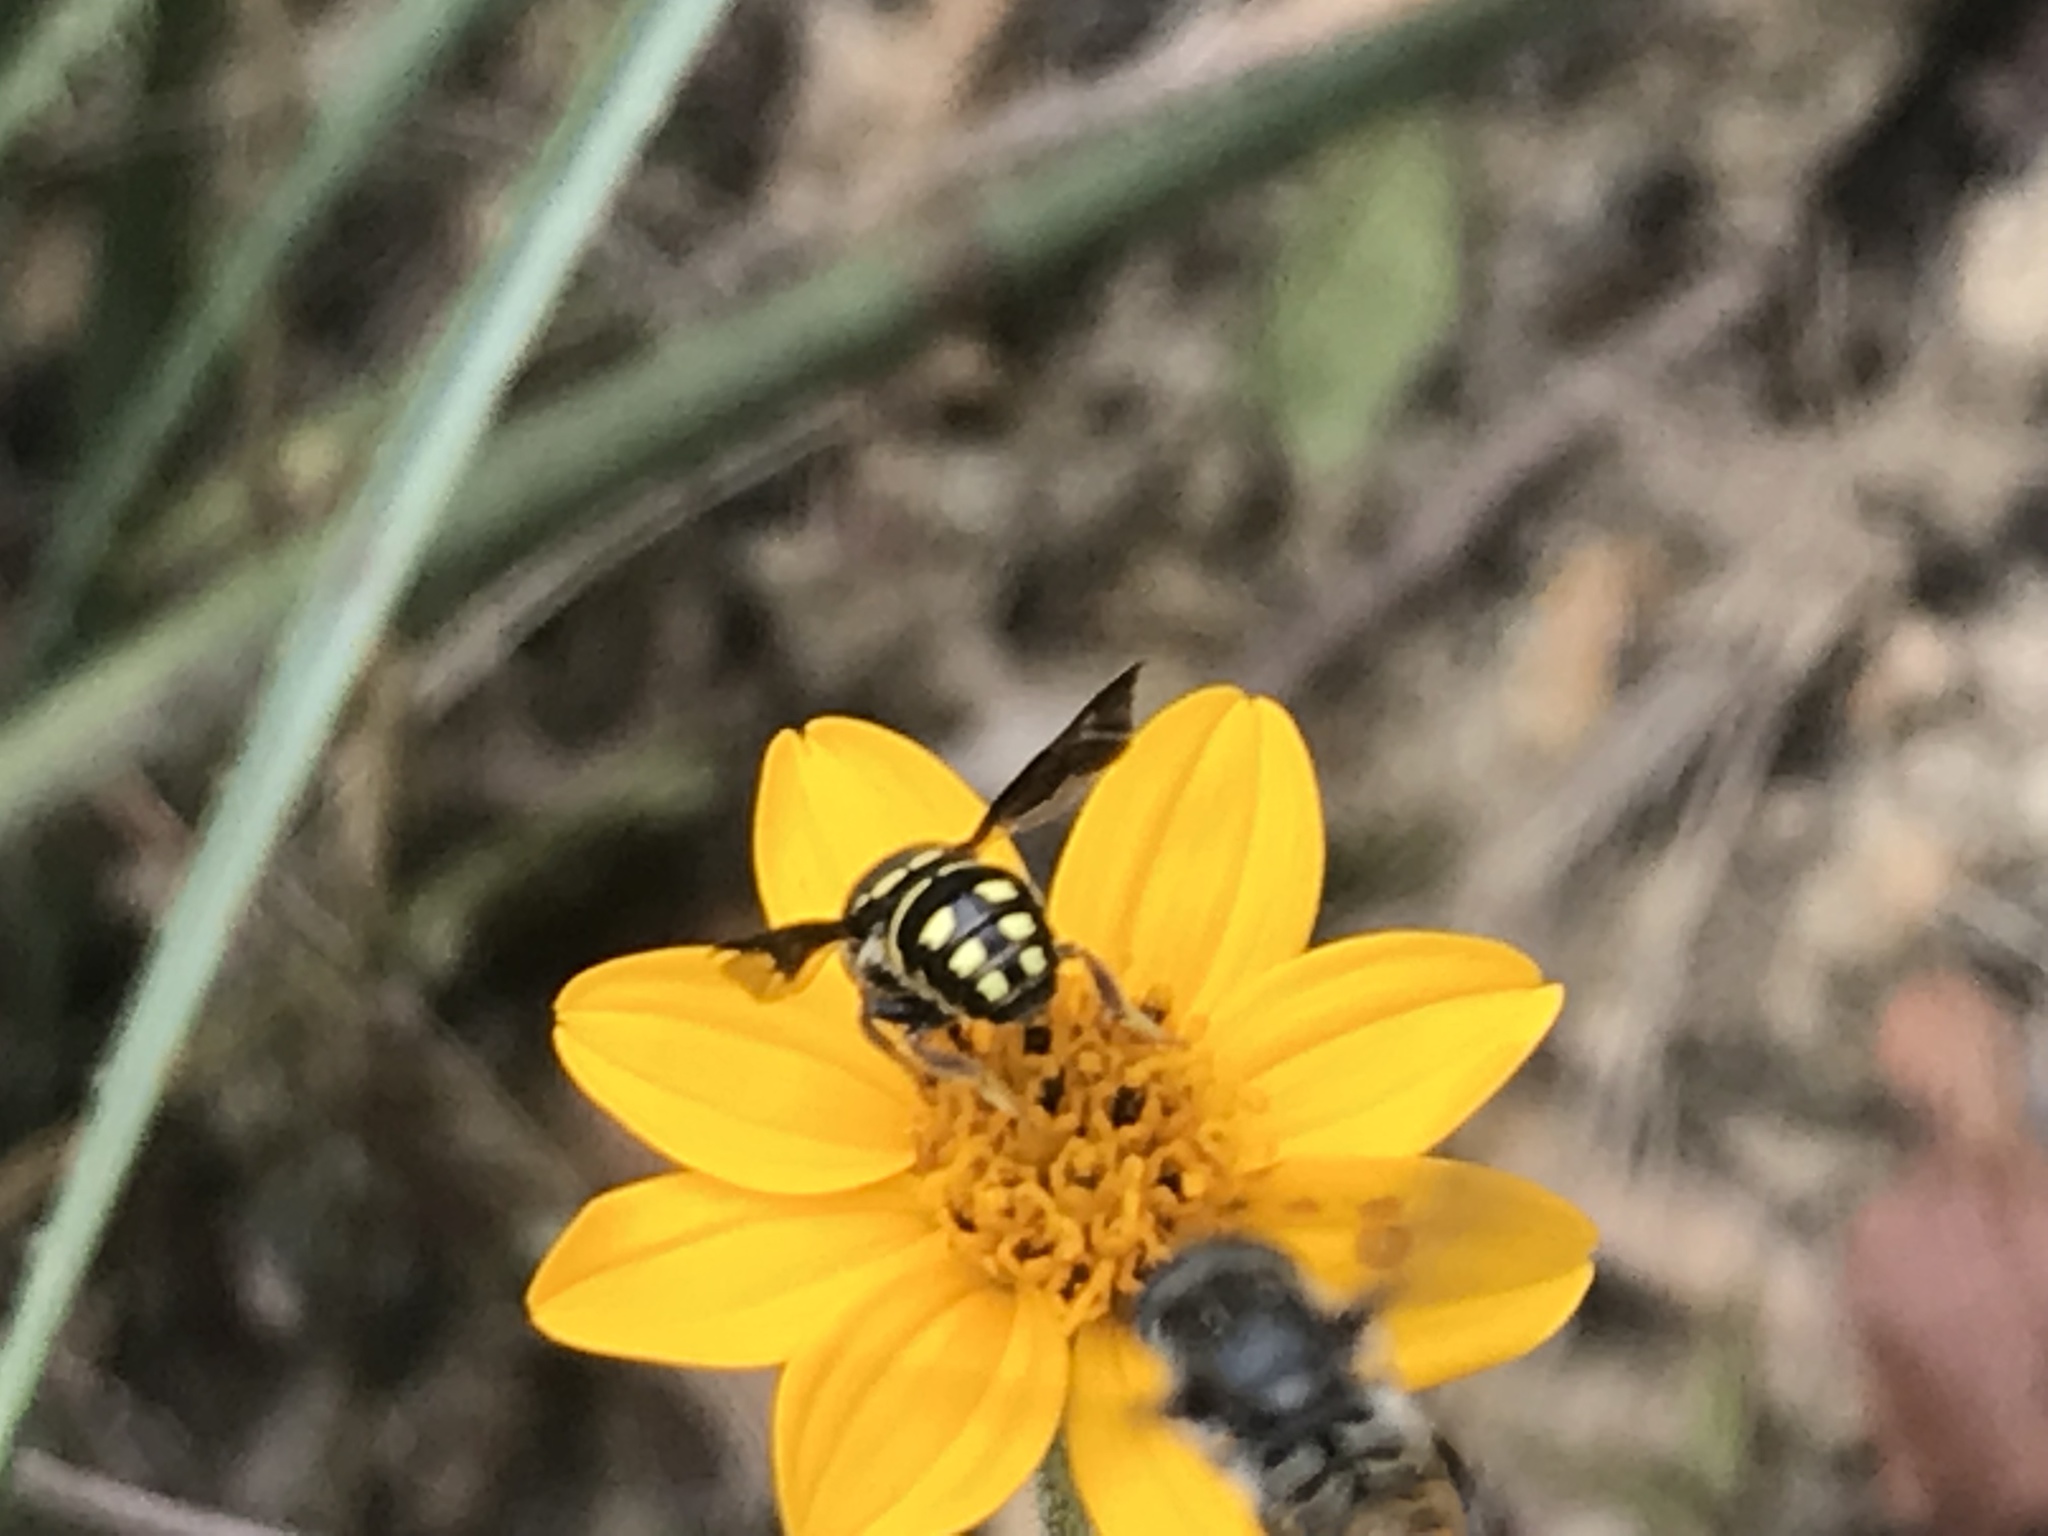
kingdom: Animalia
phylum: Arthropoda
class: Insecta
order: Hymenoptera
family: Megachilidae
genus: Anthidiellum
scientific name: Anthidiellum notatum
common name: Northern rotund-resin bee
